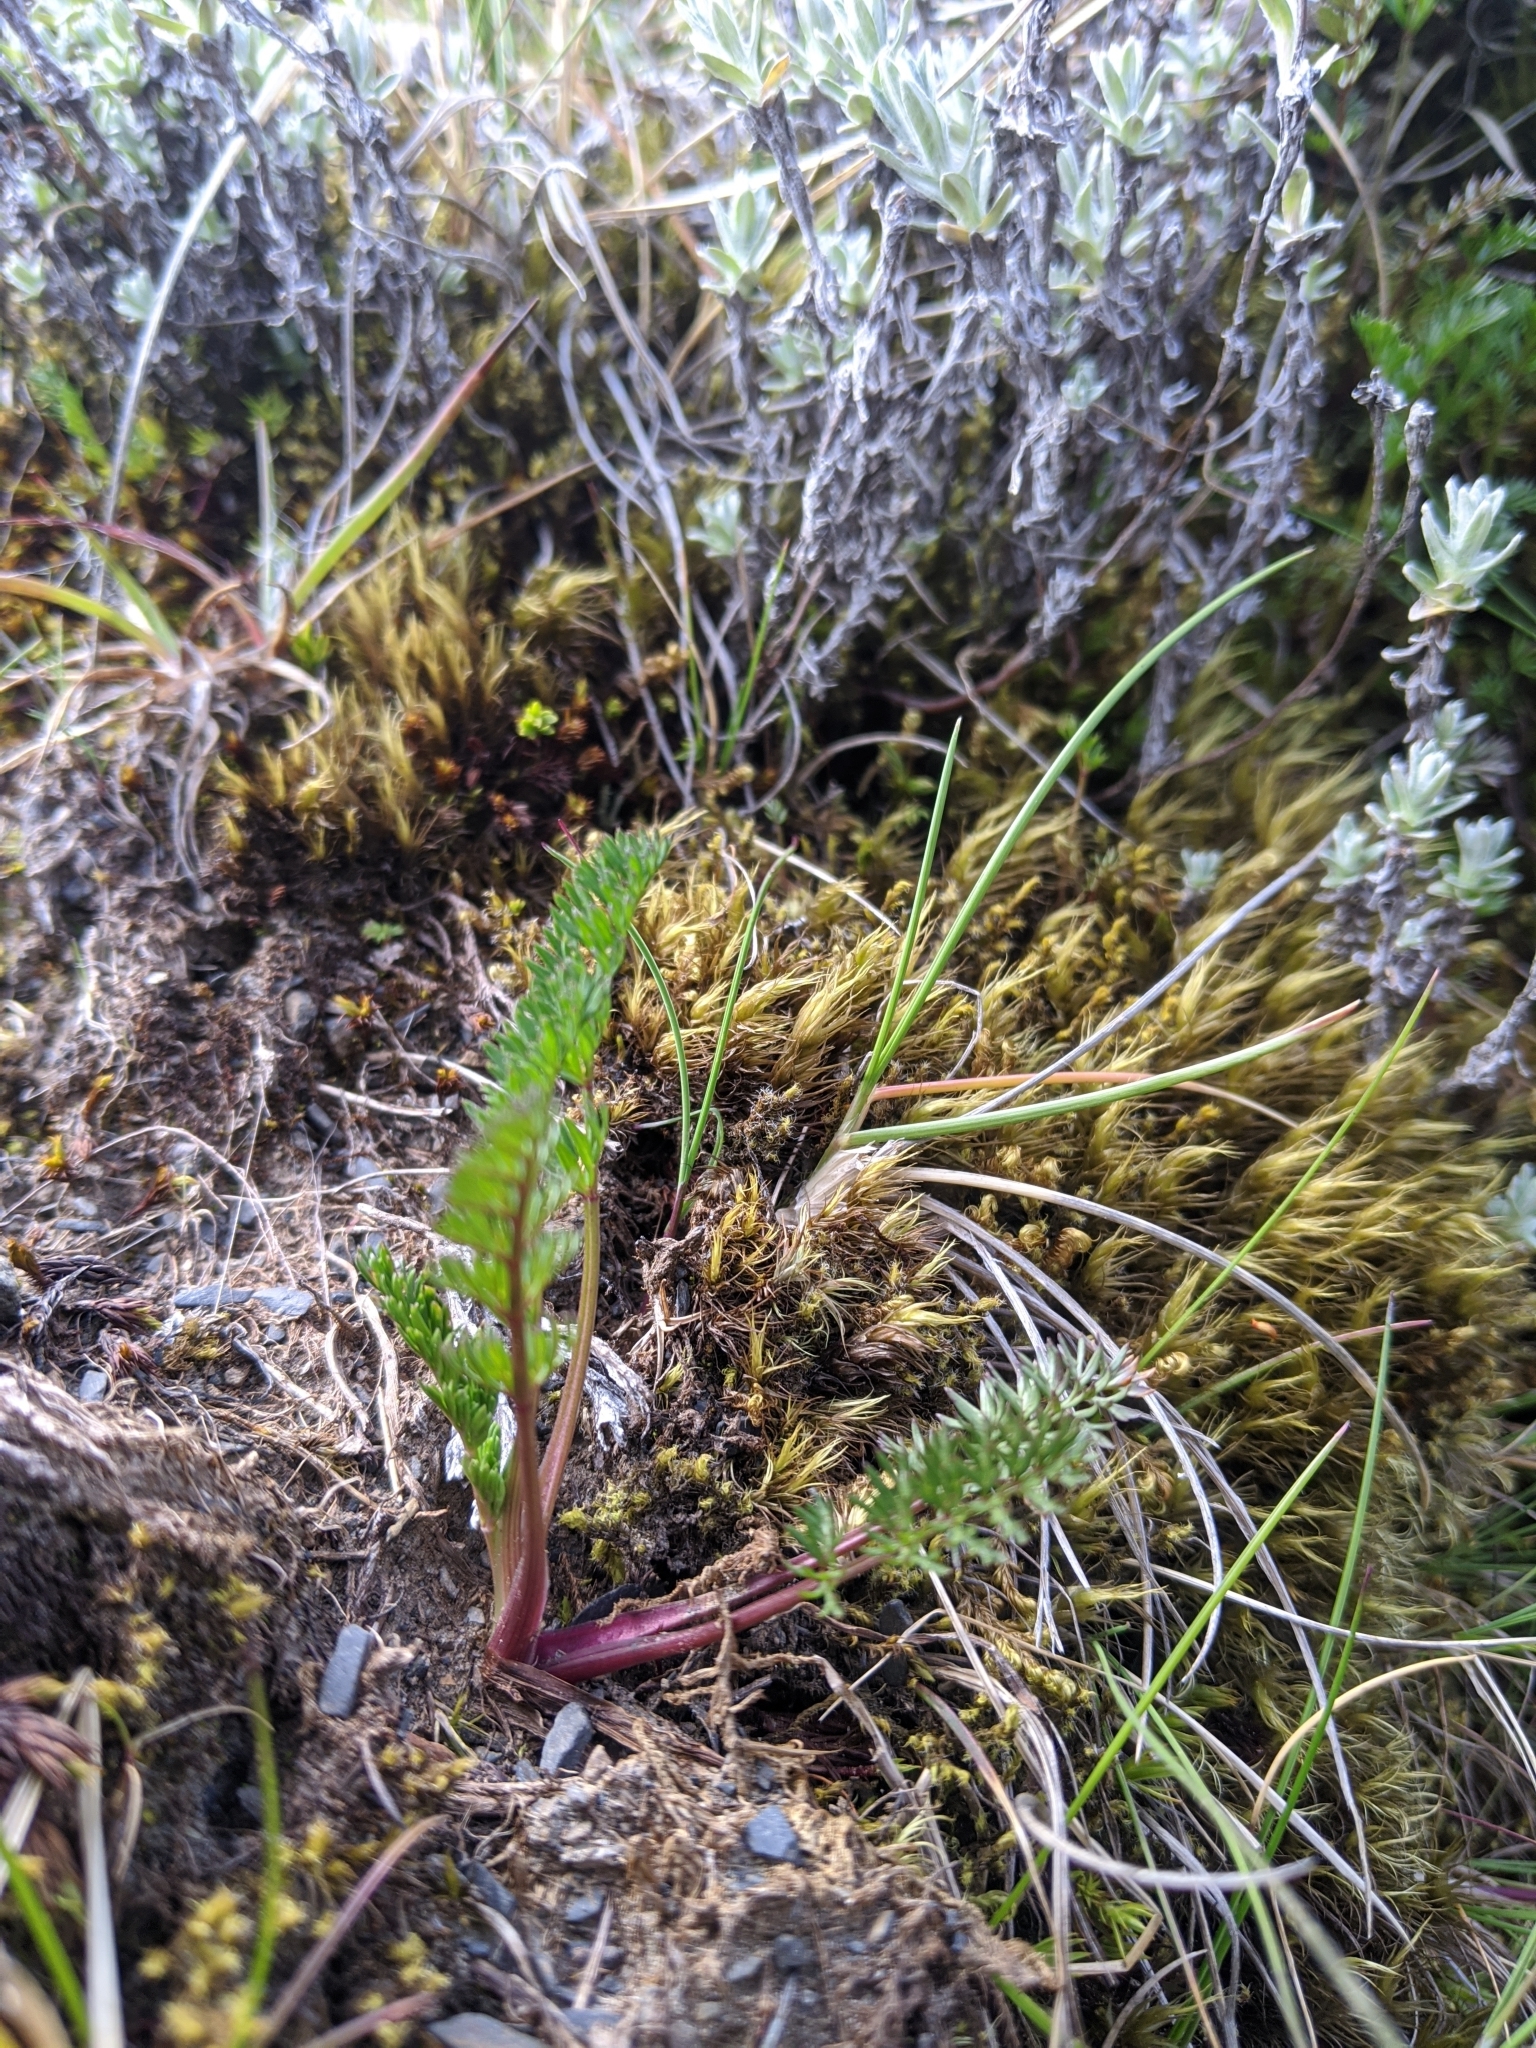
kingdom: Plantae
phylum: Tracheophyta
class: Magnoliopsida
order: Apiales
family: Apiaceae
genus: Chaerophyllum
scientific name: Chaerophyllum taiwanianum
